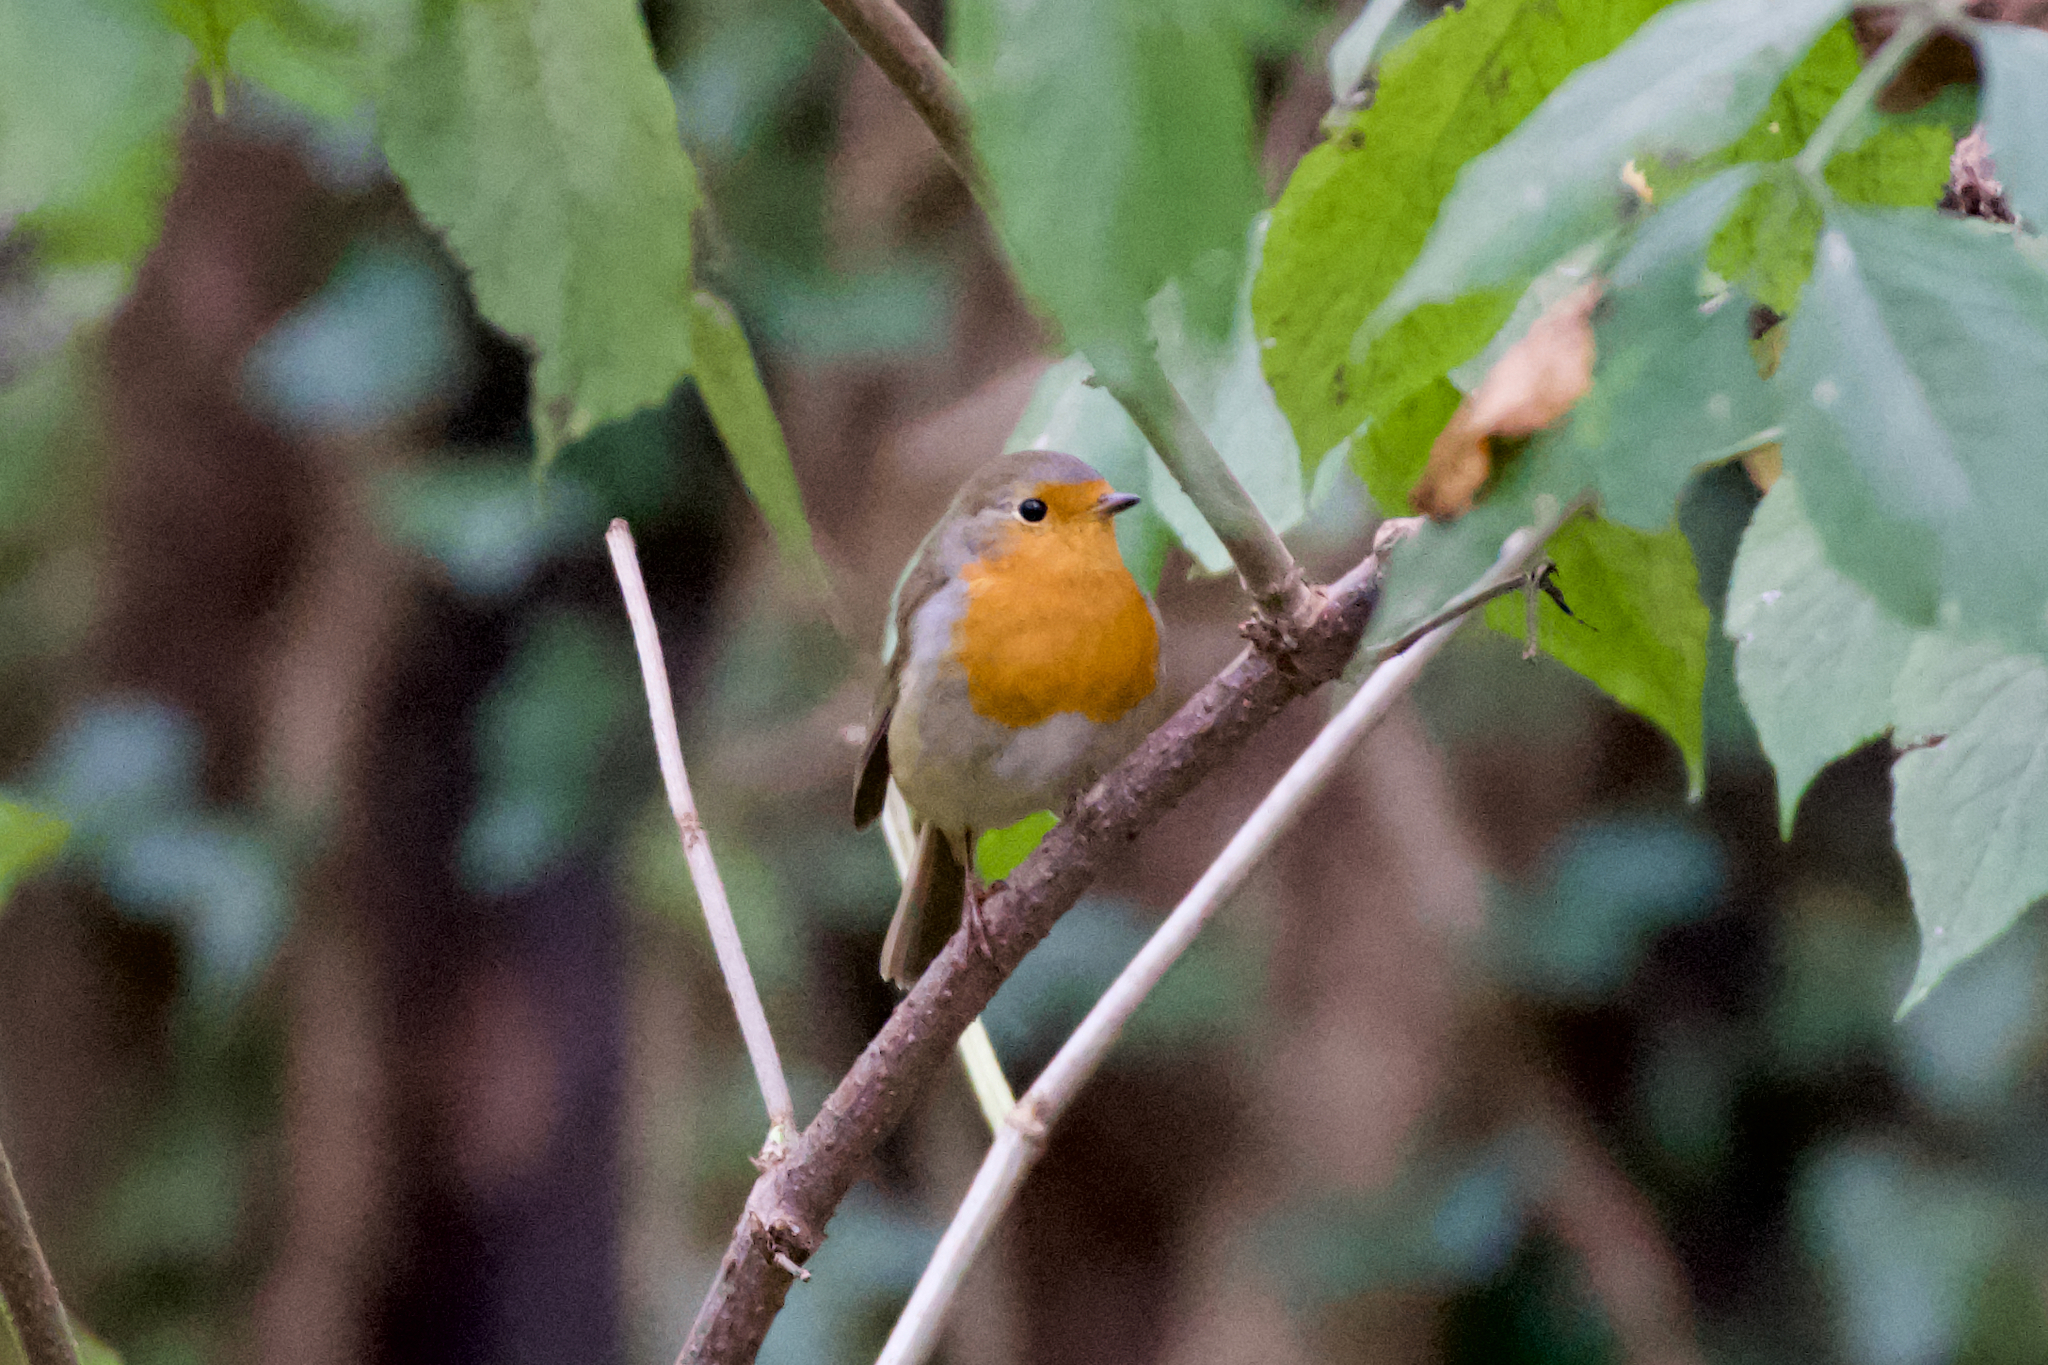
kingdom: Animalia
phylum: Chordata
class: Aves
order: Passeriformes
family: Muscicapidae
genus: Erithacus
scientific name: Erithacus rubecula
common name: European robin
